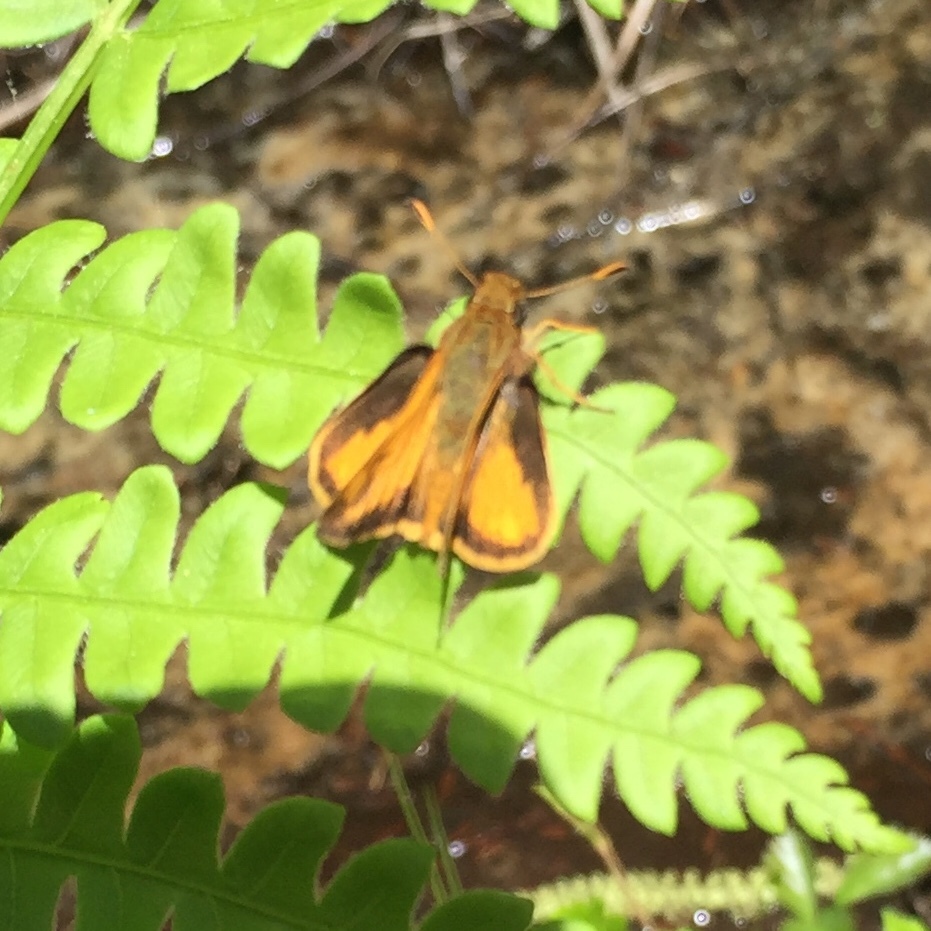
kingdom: Animalia
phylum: Arthropoda
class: Insecta
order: Lepidoptera
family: Hesperiidae
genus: Lon
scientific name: Lon zabulon
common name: Zabulon skipper
